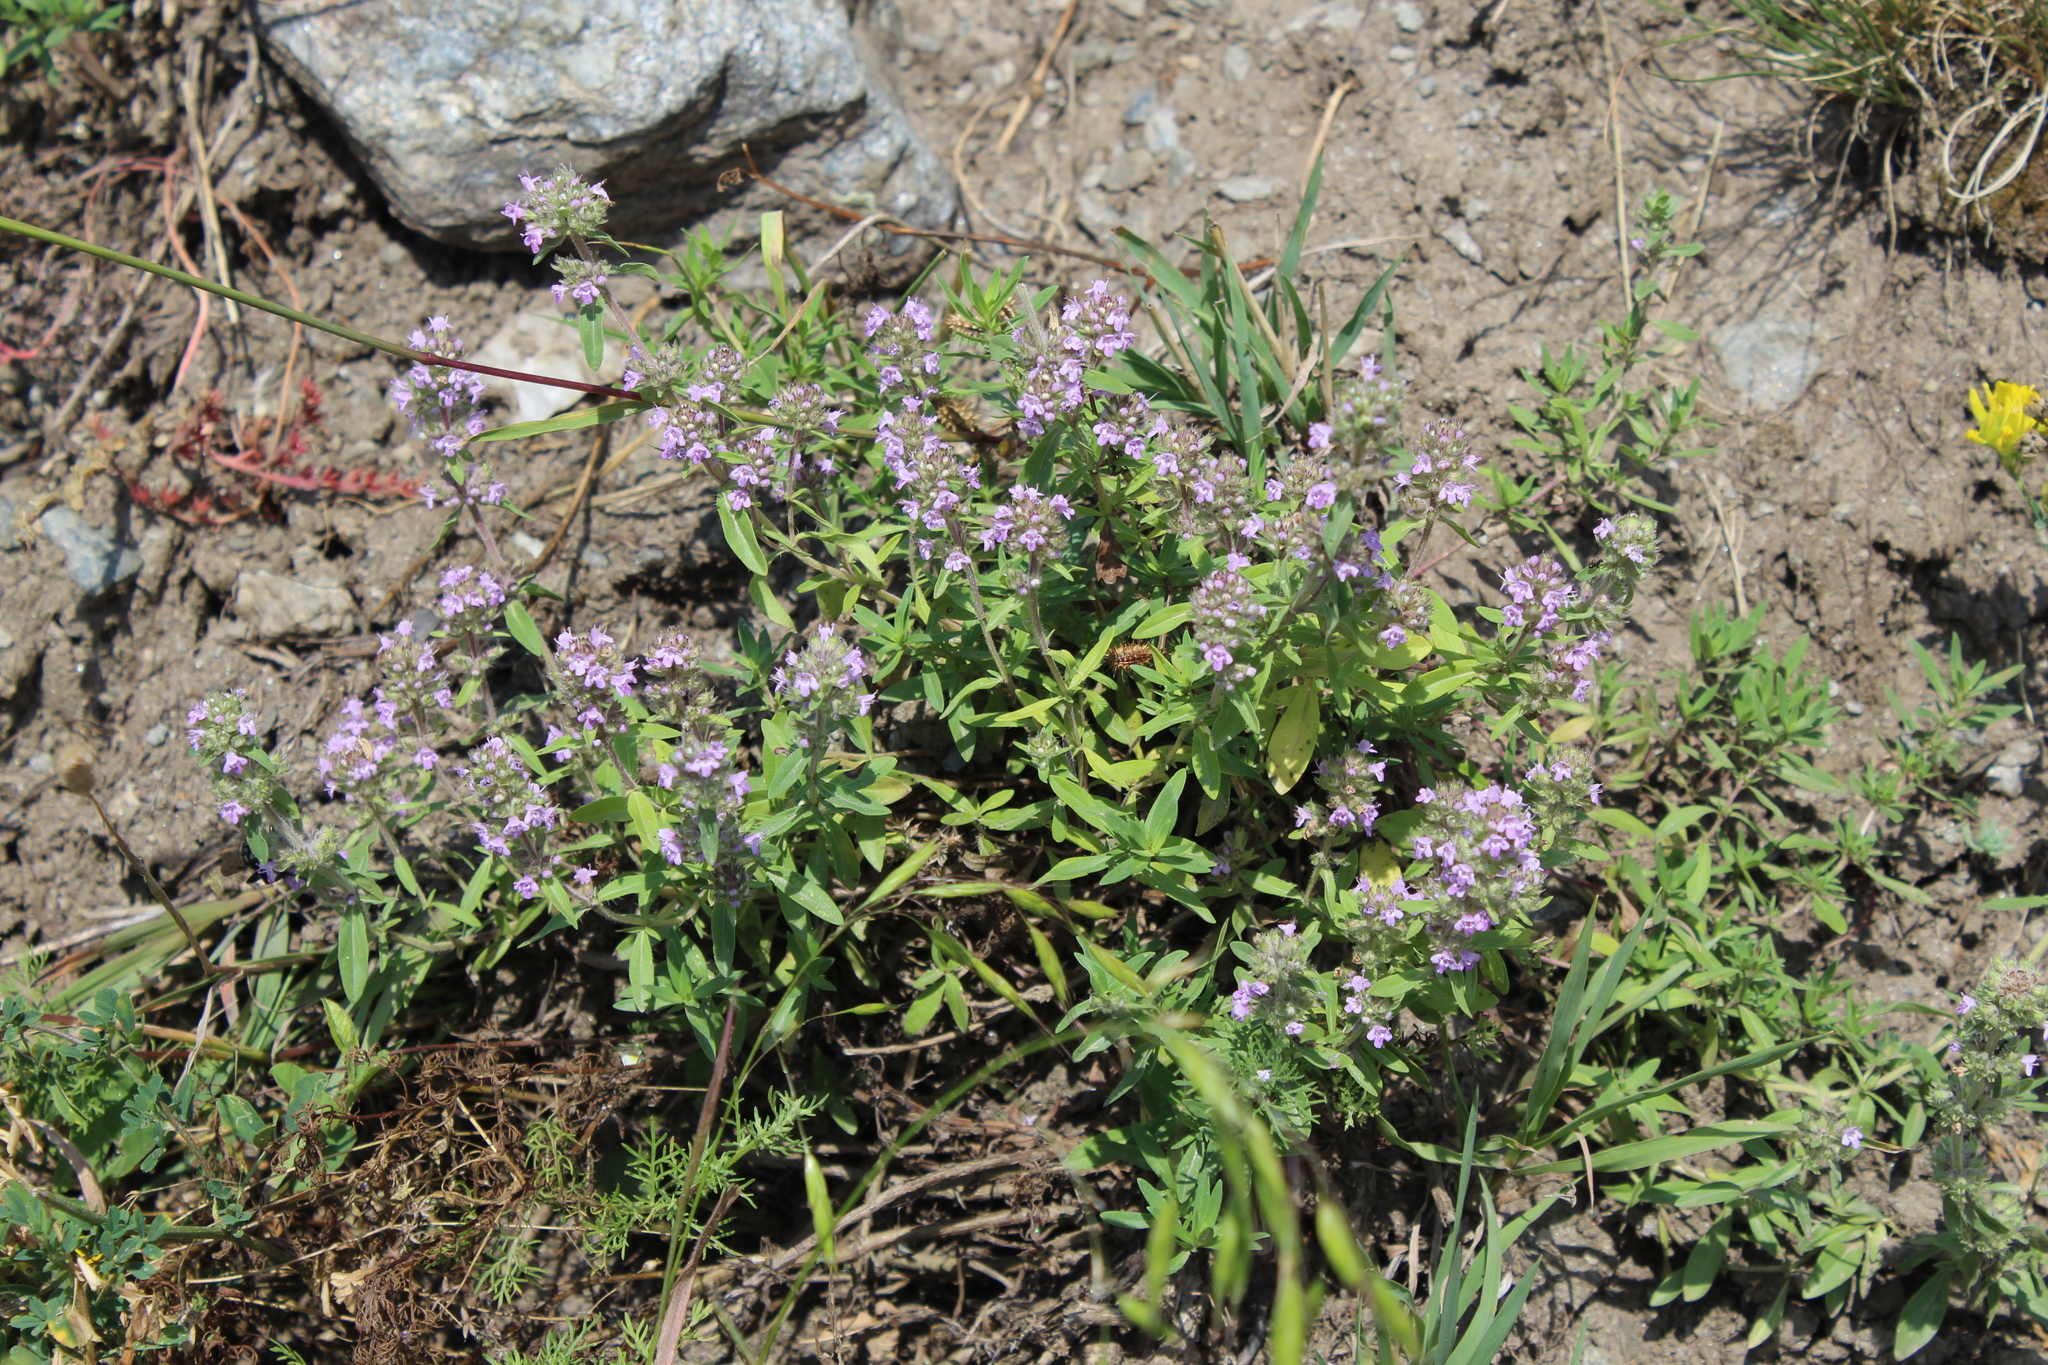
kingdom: Plantae
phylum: Tracheophyta
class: Magnoliopsida
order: Lamiales
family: Lamiaceae
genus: Thymus
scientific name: Thymus pannonicus
